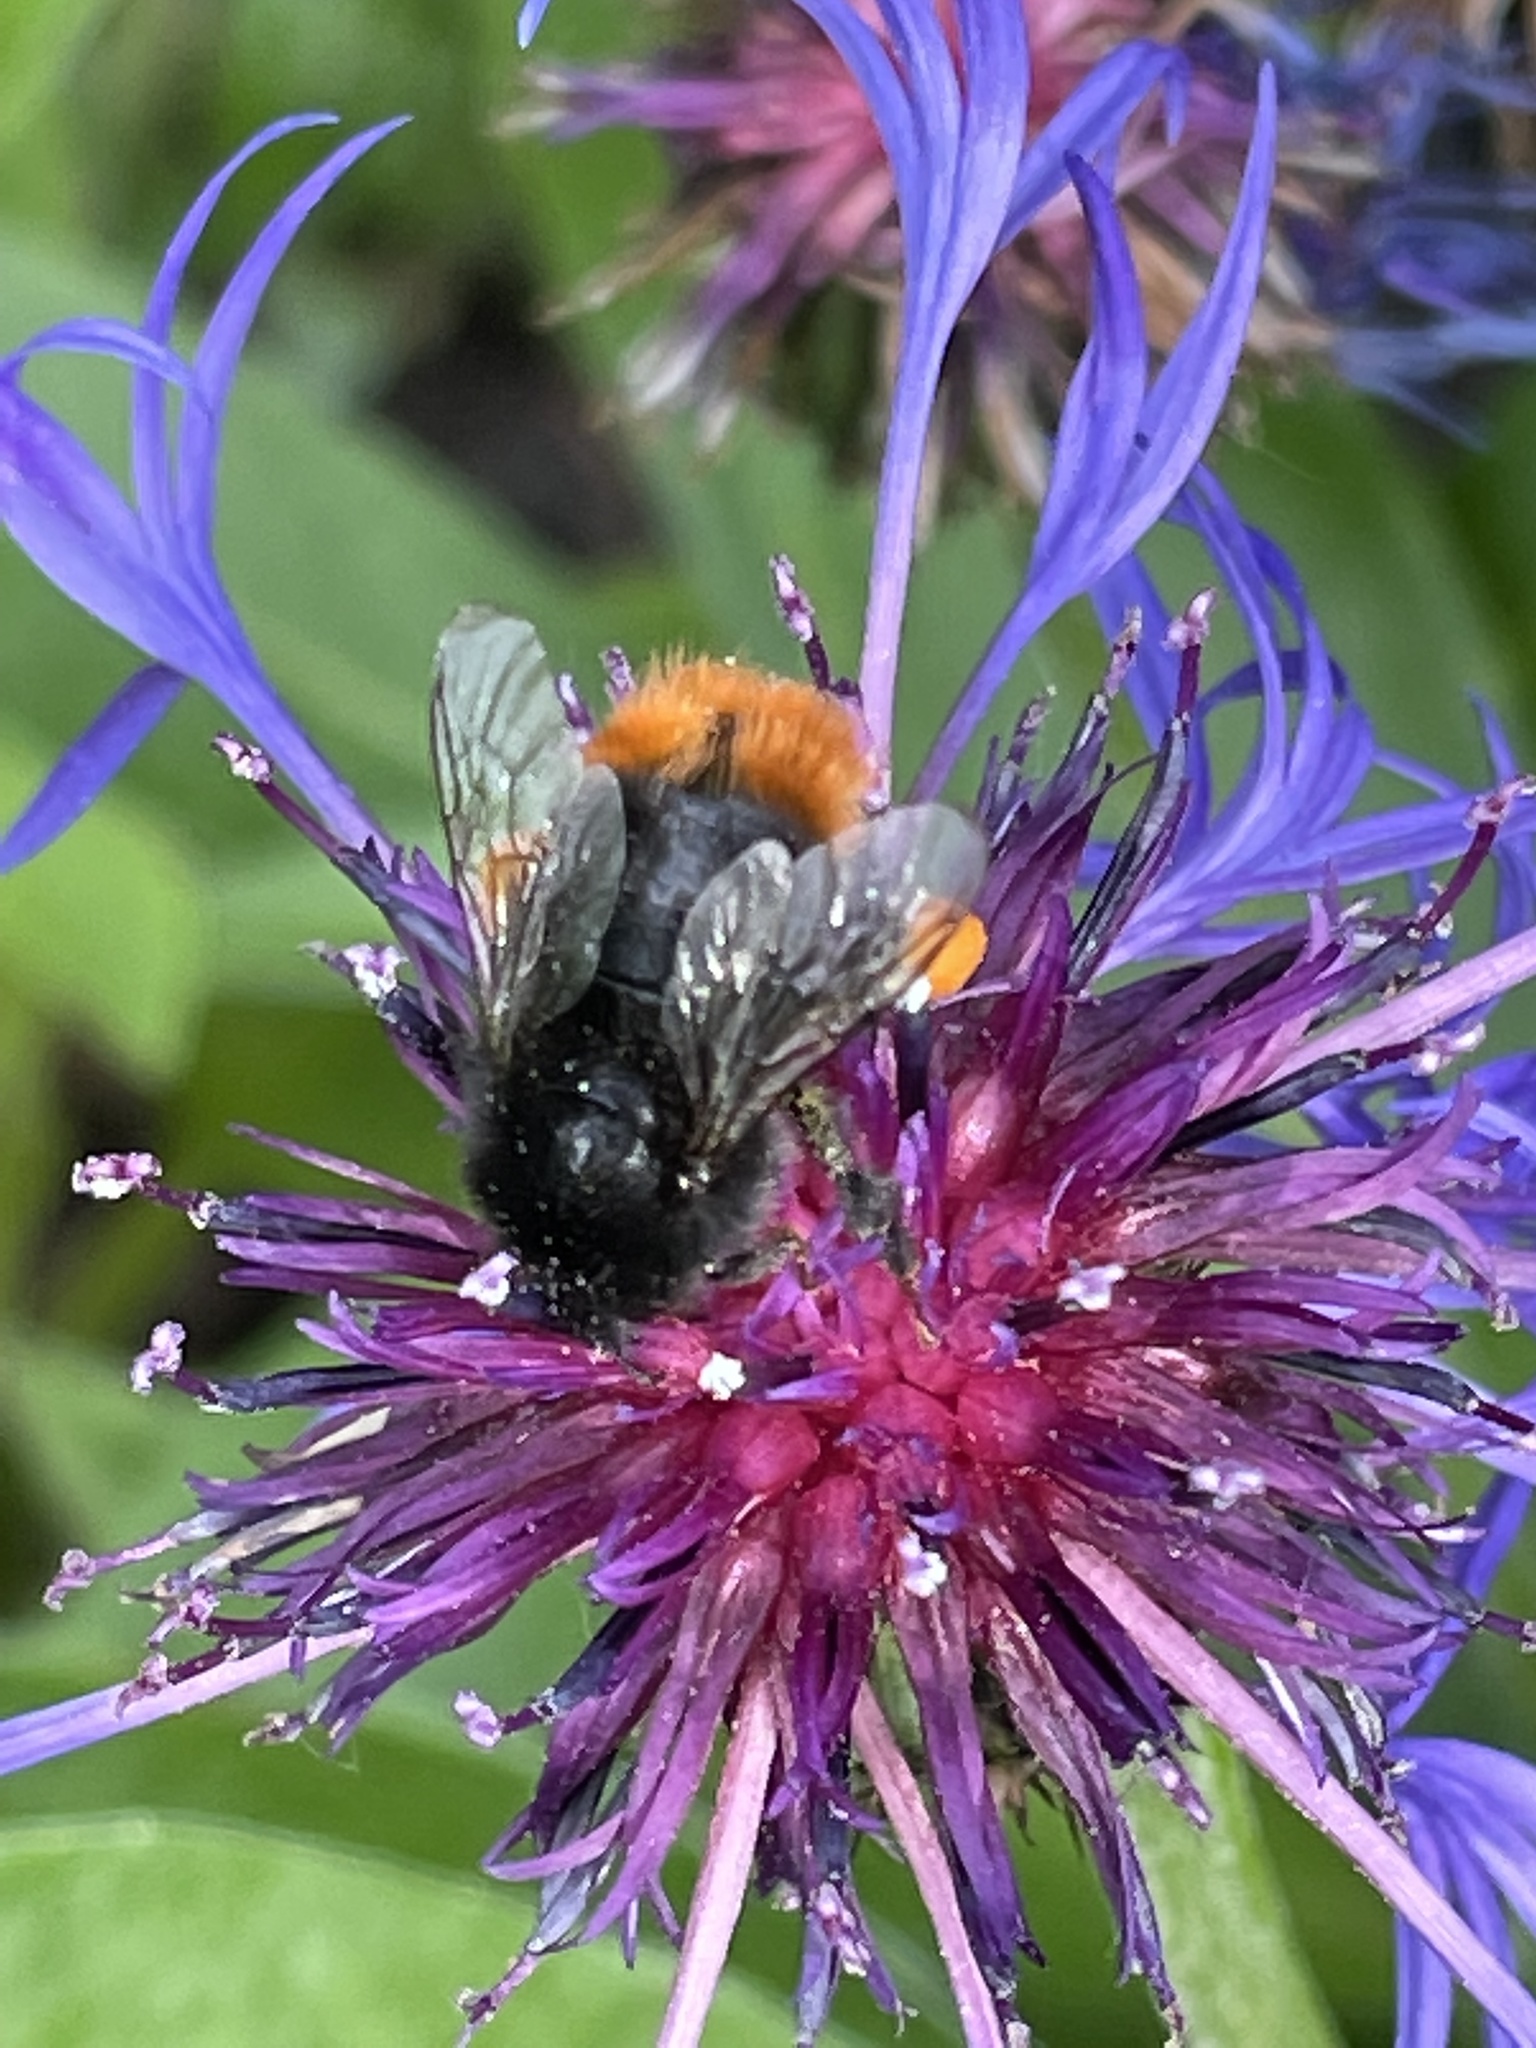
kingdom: Animalia
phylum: Arthropoda
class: Insecta
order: Hymenoptera
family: Apidae
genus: Bombus
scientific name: Bombus lapidarius
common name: Large red-tailed humble-bee
